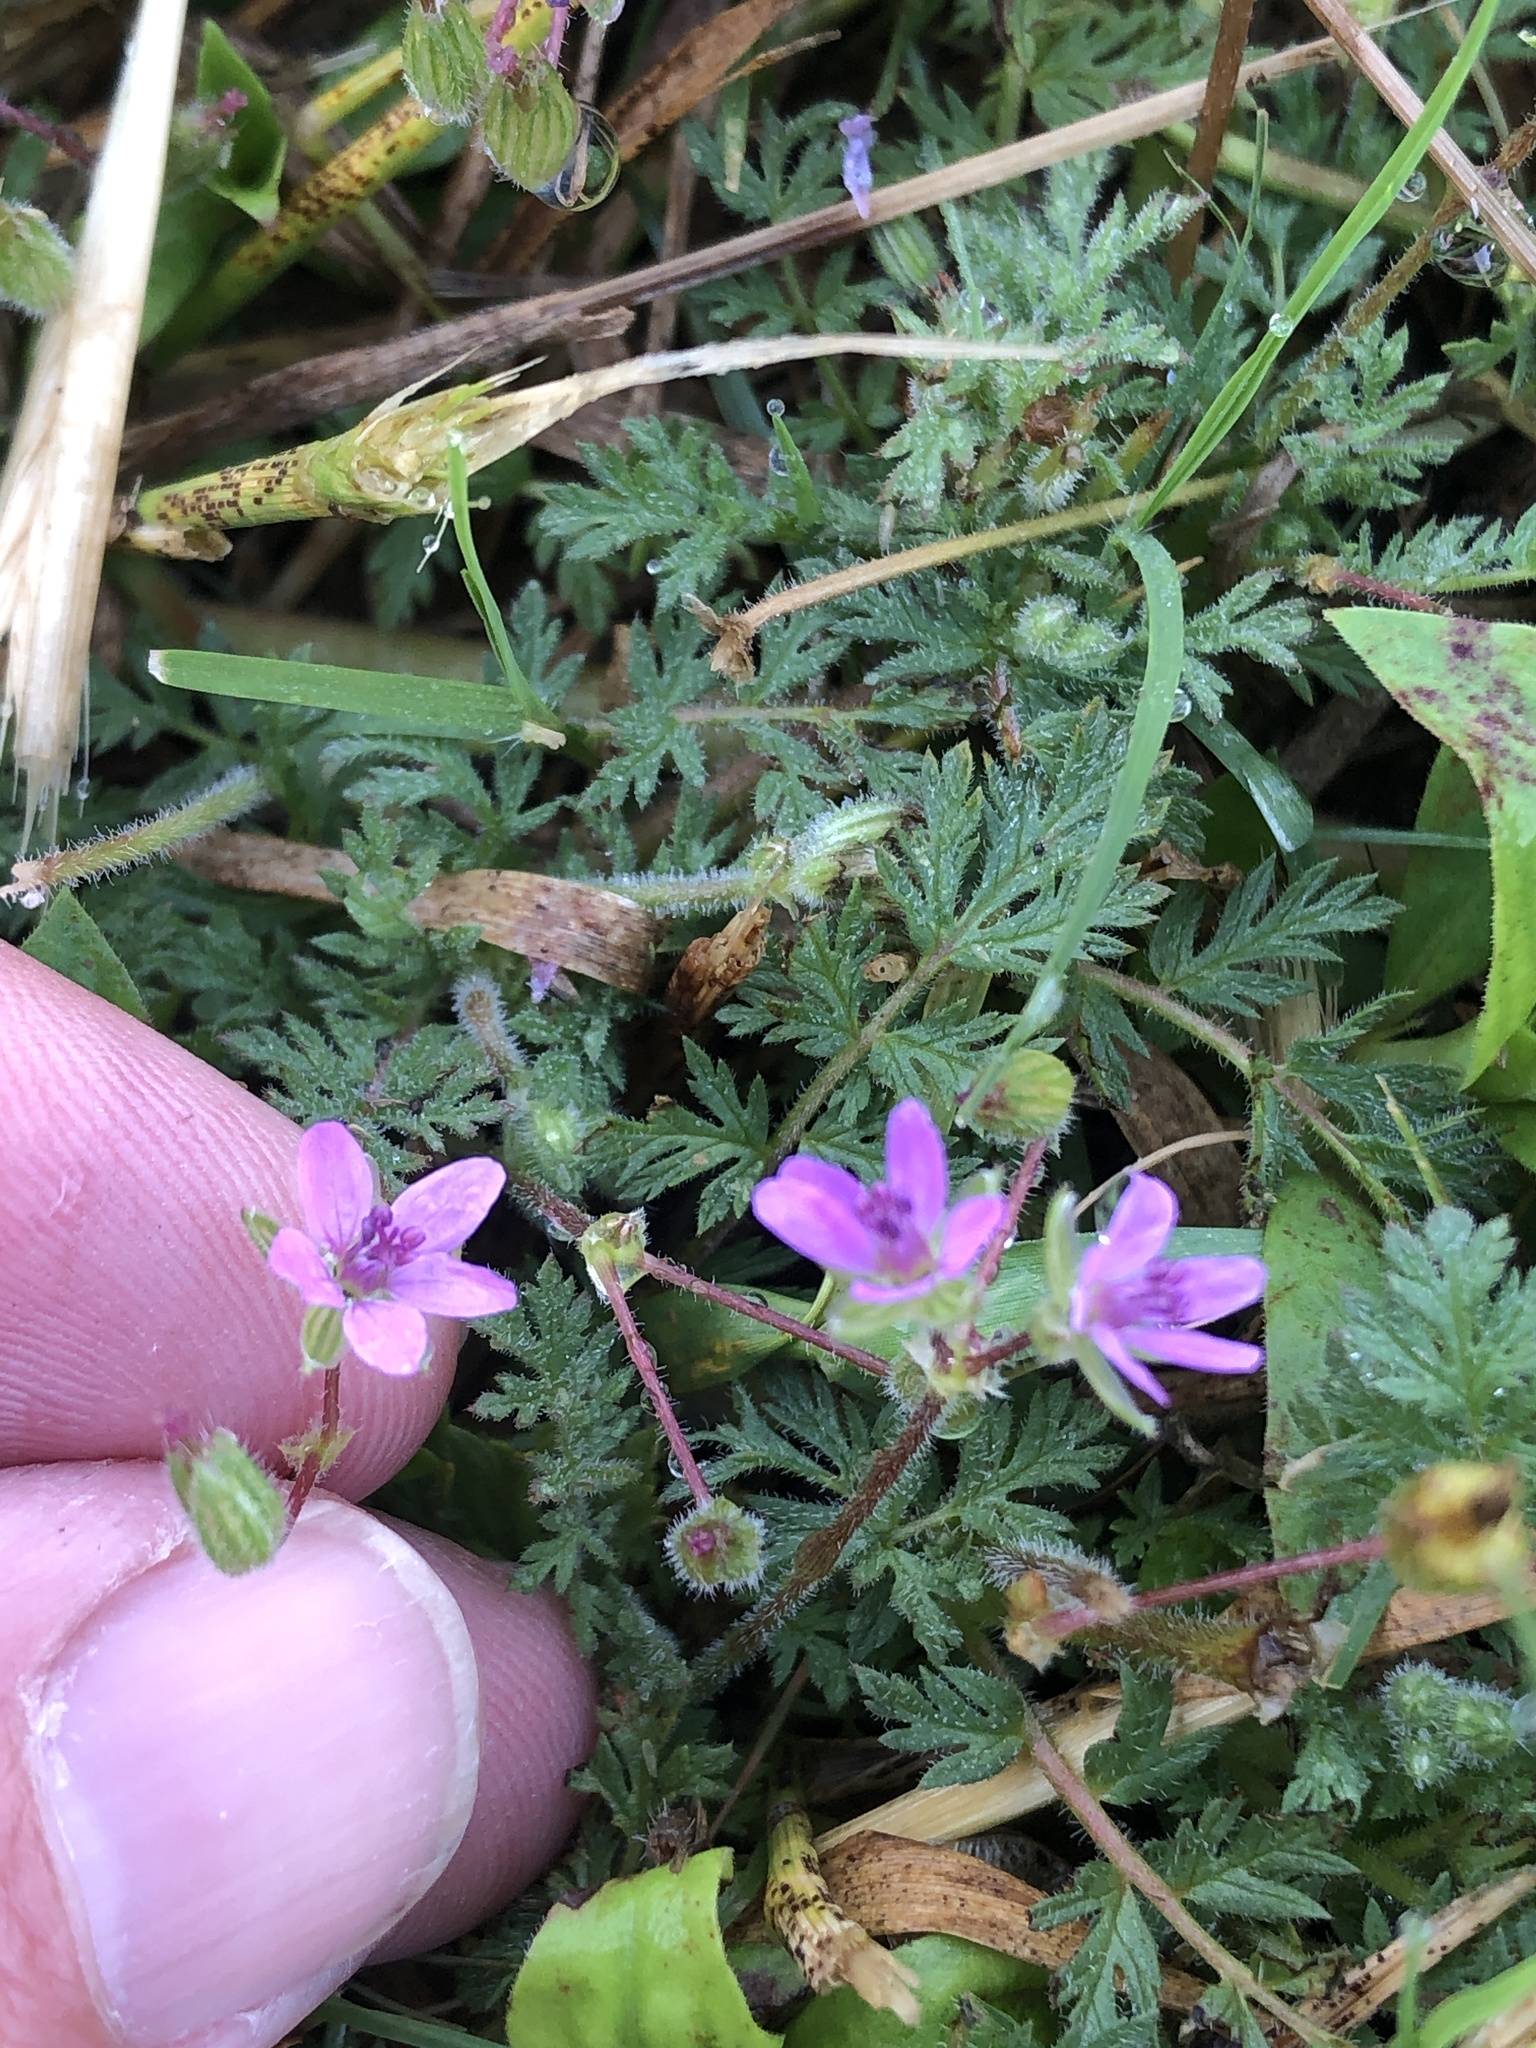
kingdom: Plantae
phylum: Tracheophyta
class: Magnoliopsida
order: Geraniales
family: Geraniaceae
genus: Erodium
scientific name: Erodium cicutarium
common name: Common stork's-bill
